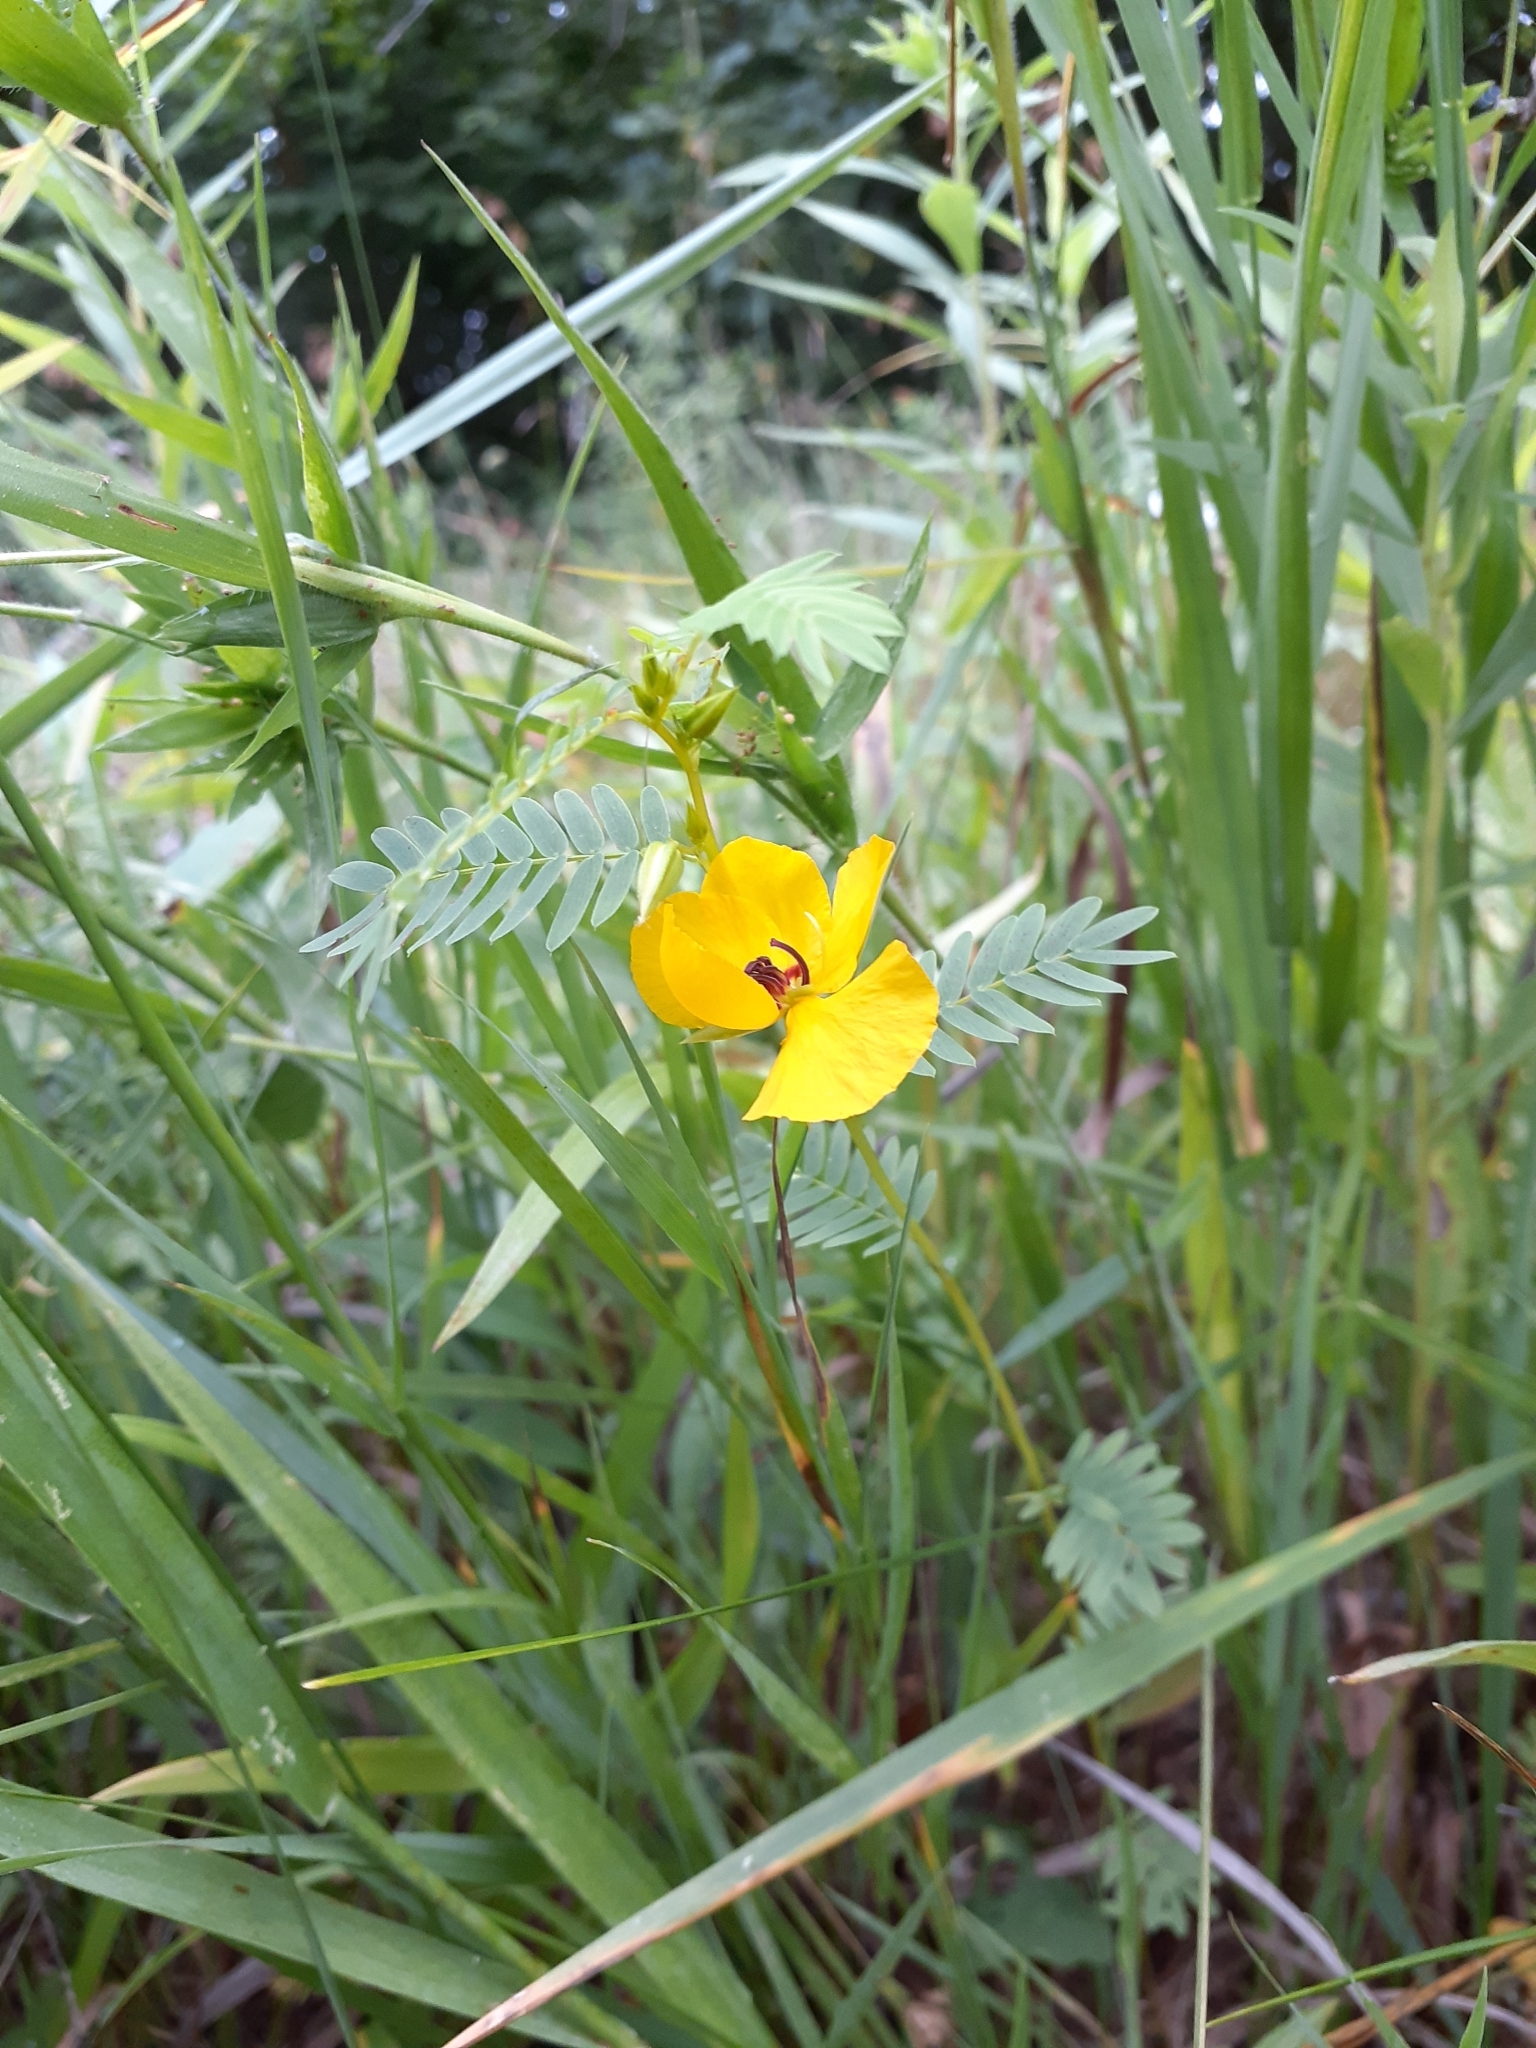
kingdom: Plantae
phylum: Tracheophyta
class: Magnoliopsida
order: Fabales
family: Fabaceae
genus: Chamaecrista
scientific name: Chamaecrista fasciculata
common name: Golden cassia
